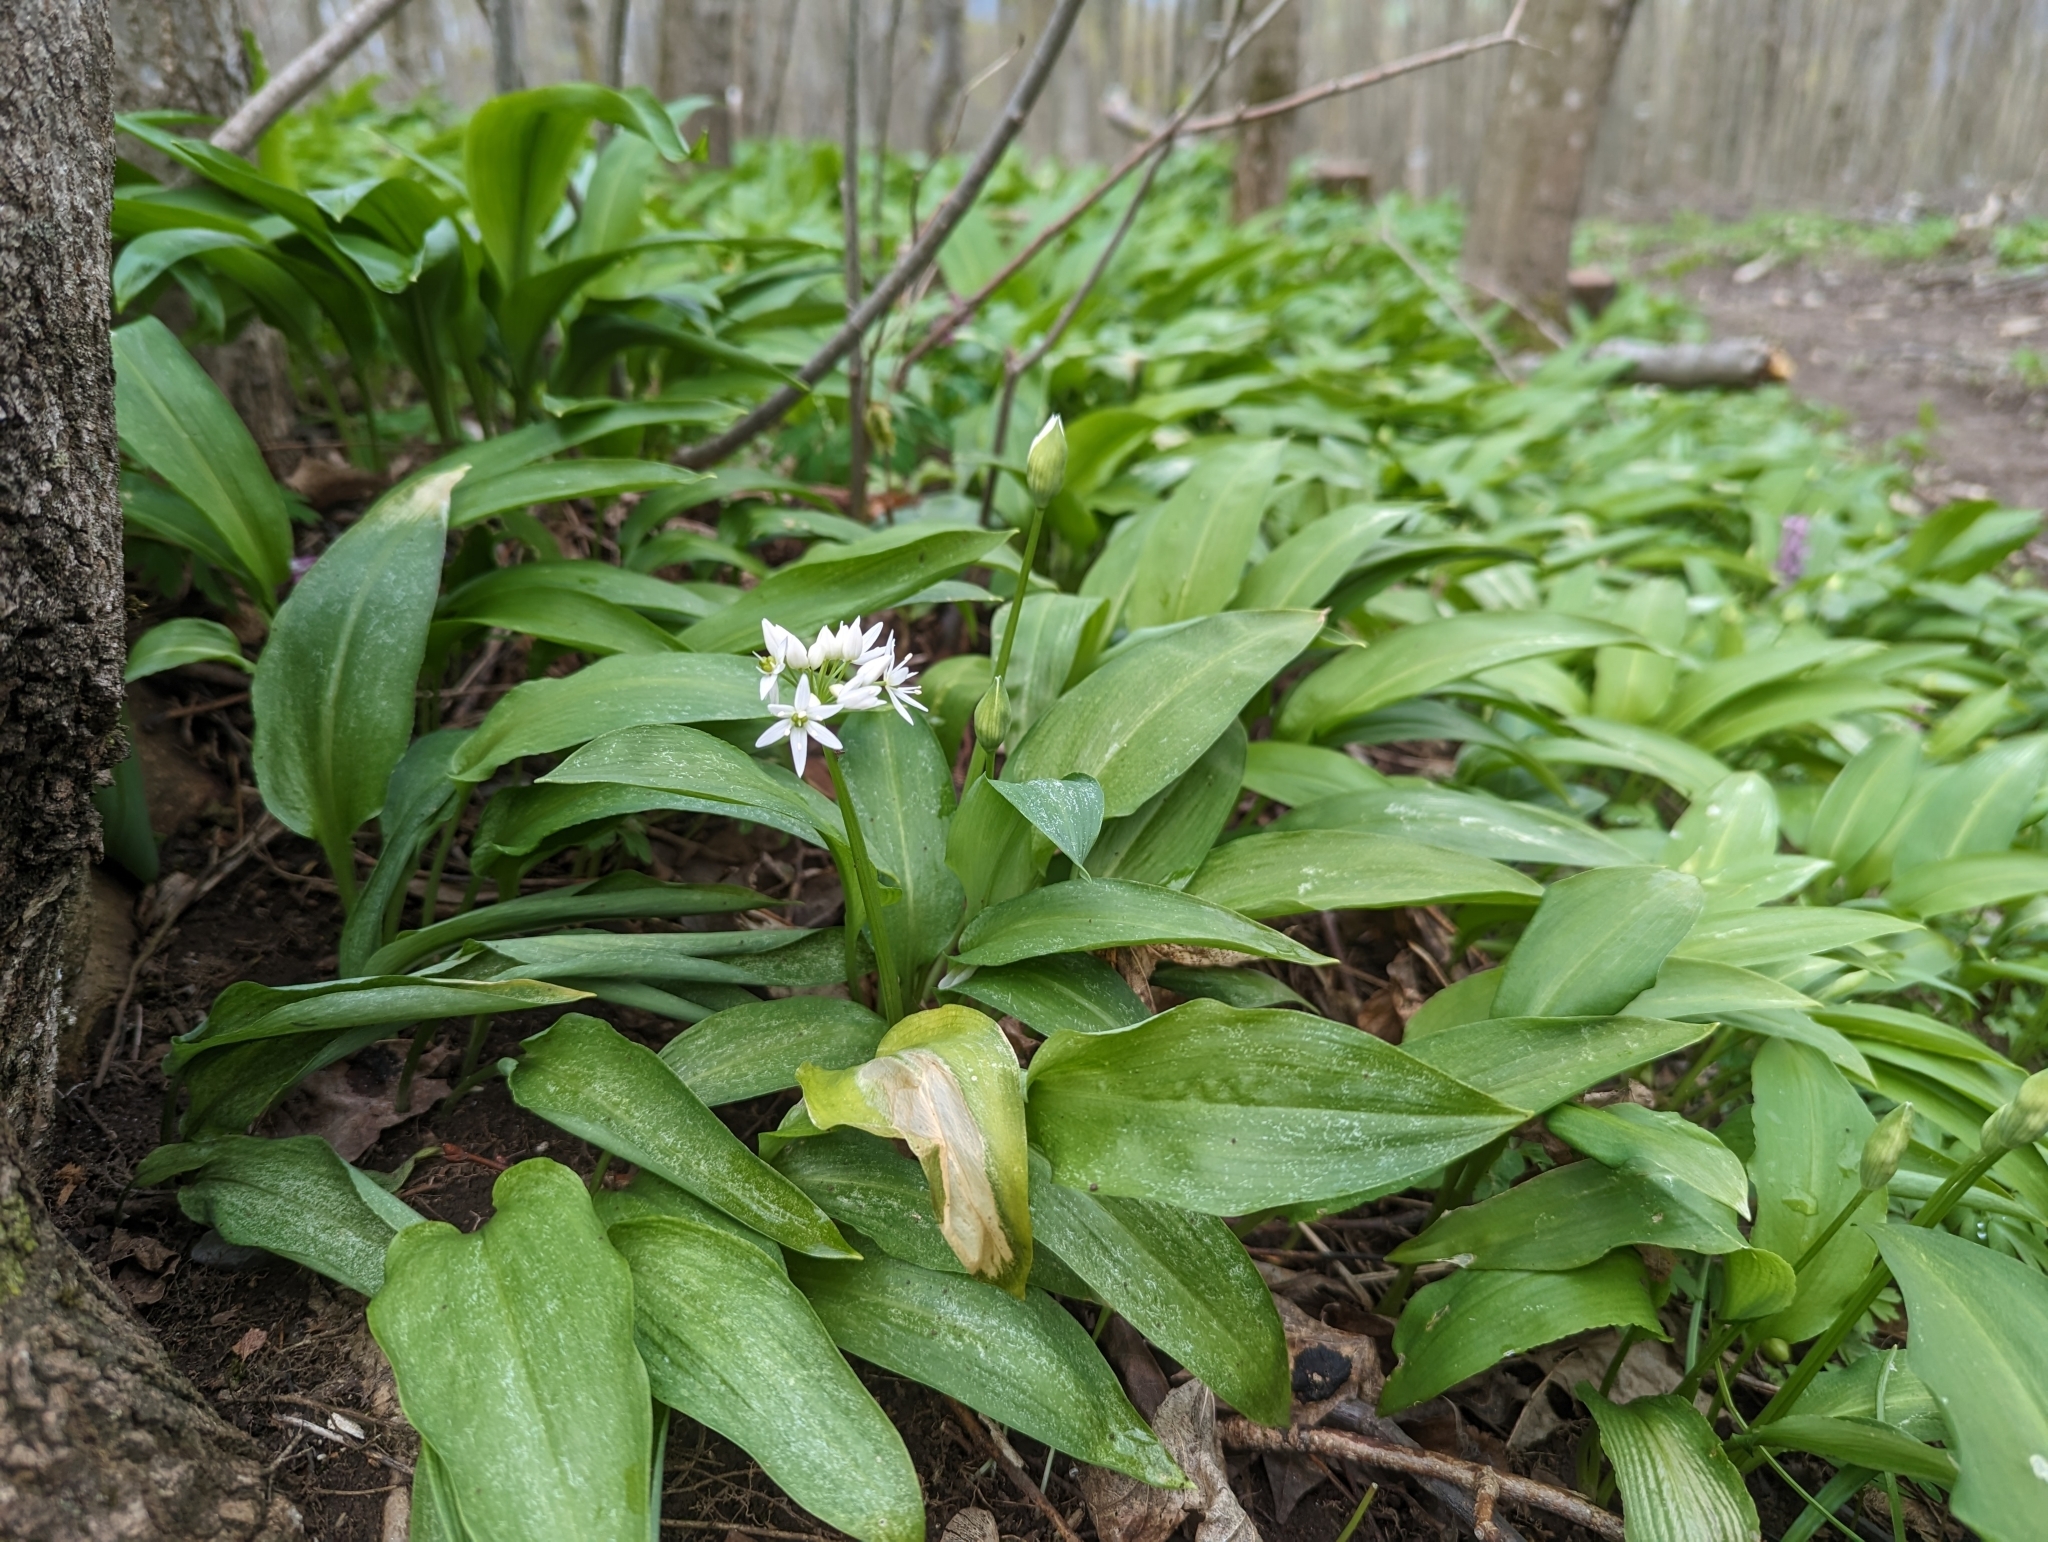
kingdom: Plantae
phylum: Tracheophyta
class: Liliopsida
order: Asparagales
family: Amaryllidaceae
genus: Allium
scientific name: Allium ursinum
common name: Ramsons
